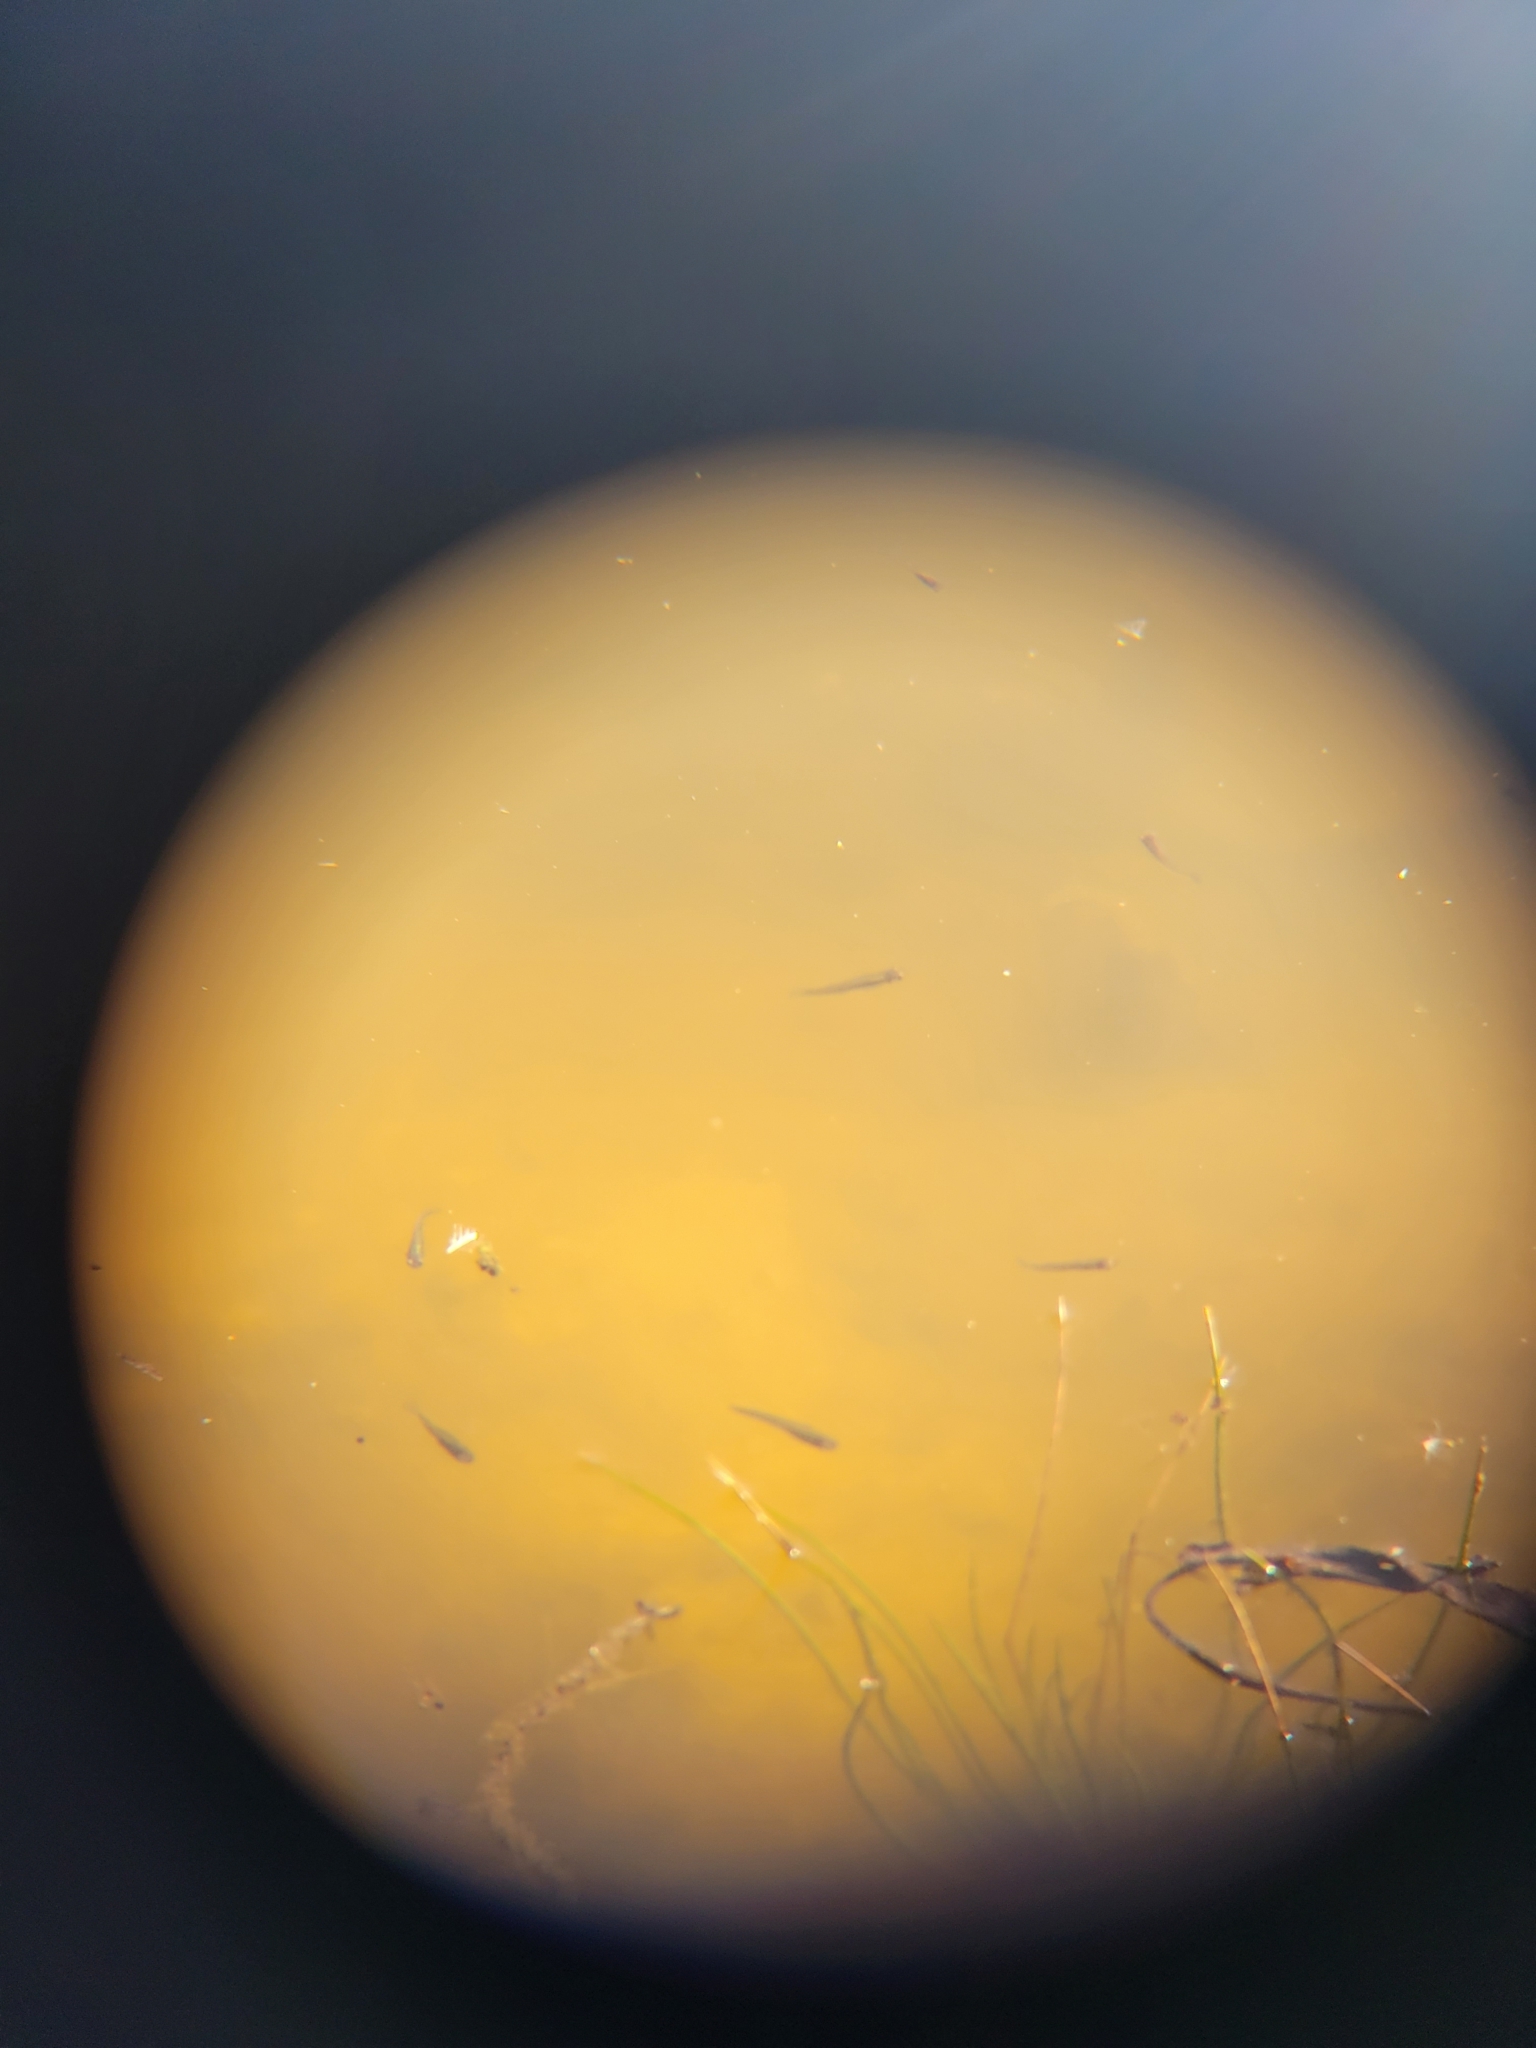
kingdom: Animalia
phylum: Chordata
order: Cyprinodontiformes
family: Poeciliidae
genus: Gambusia
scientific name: Gambusia holbrooki
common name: Eastern mosquitofish
